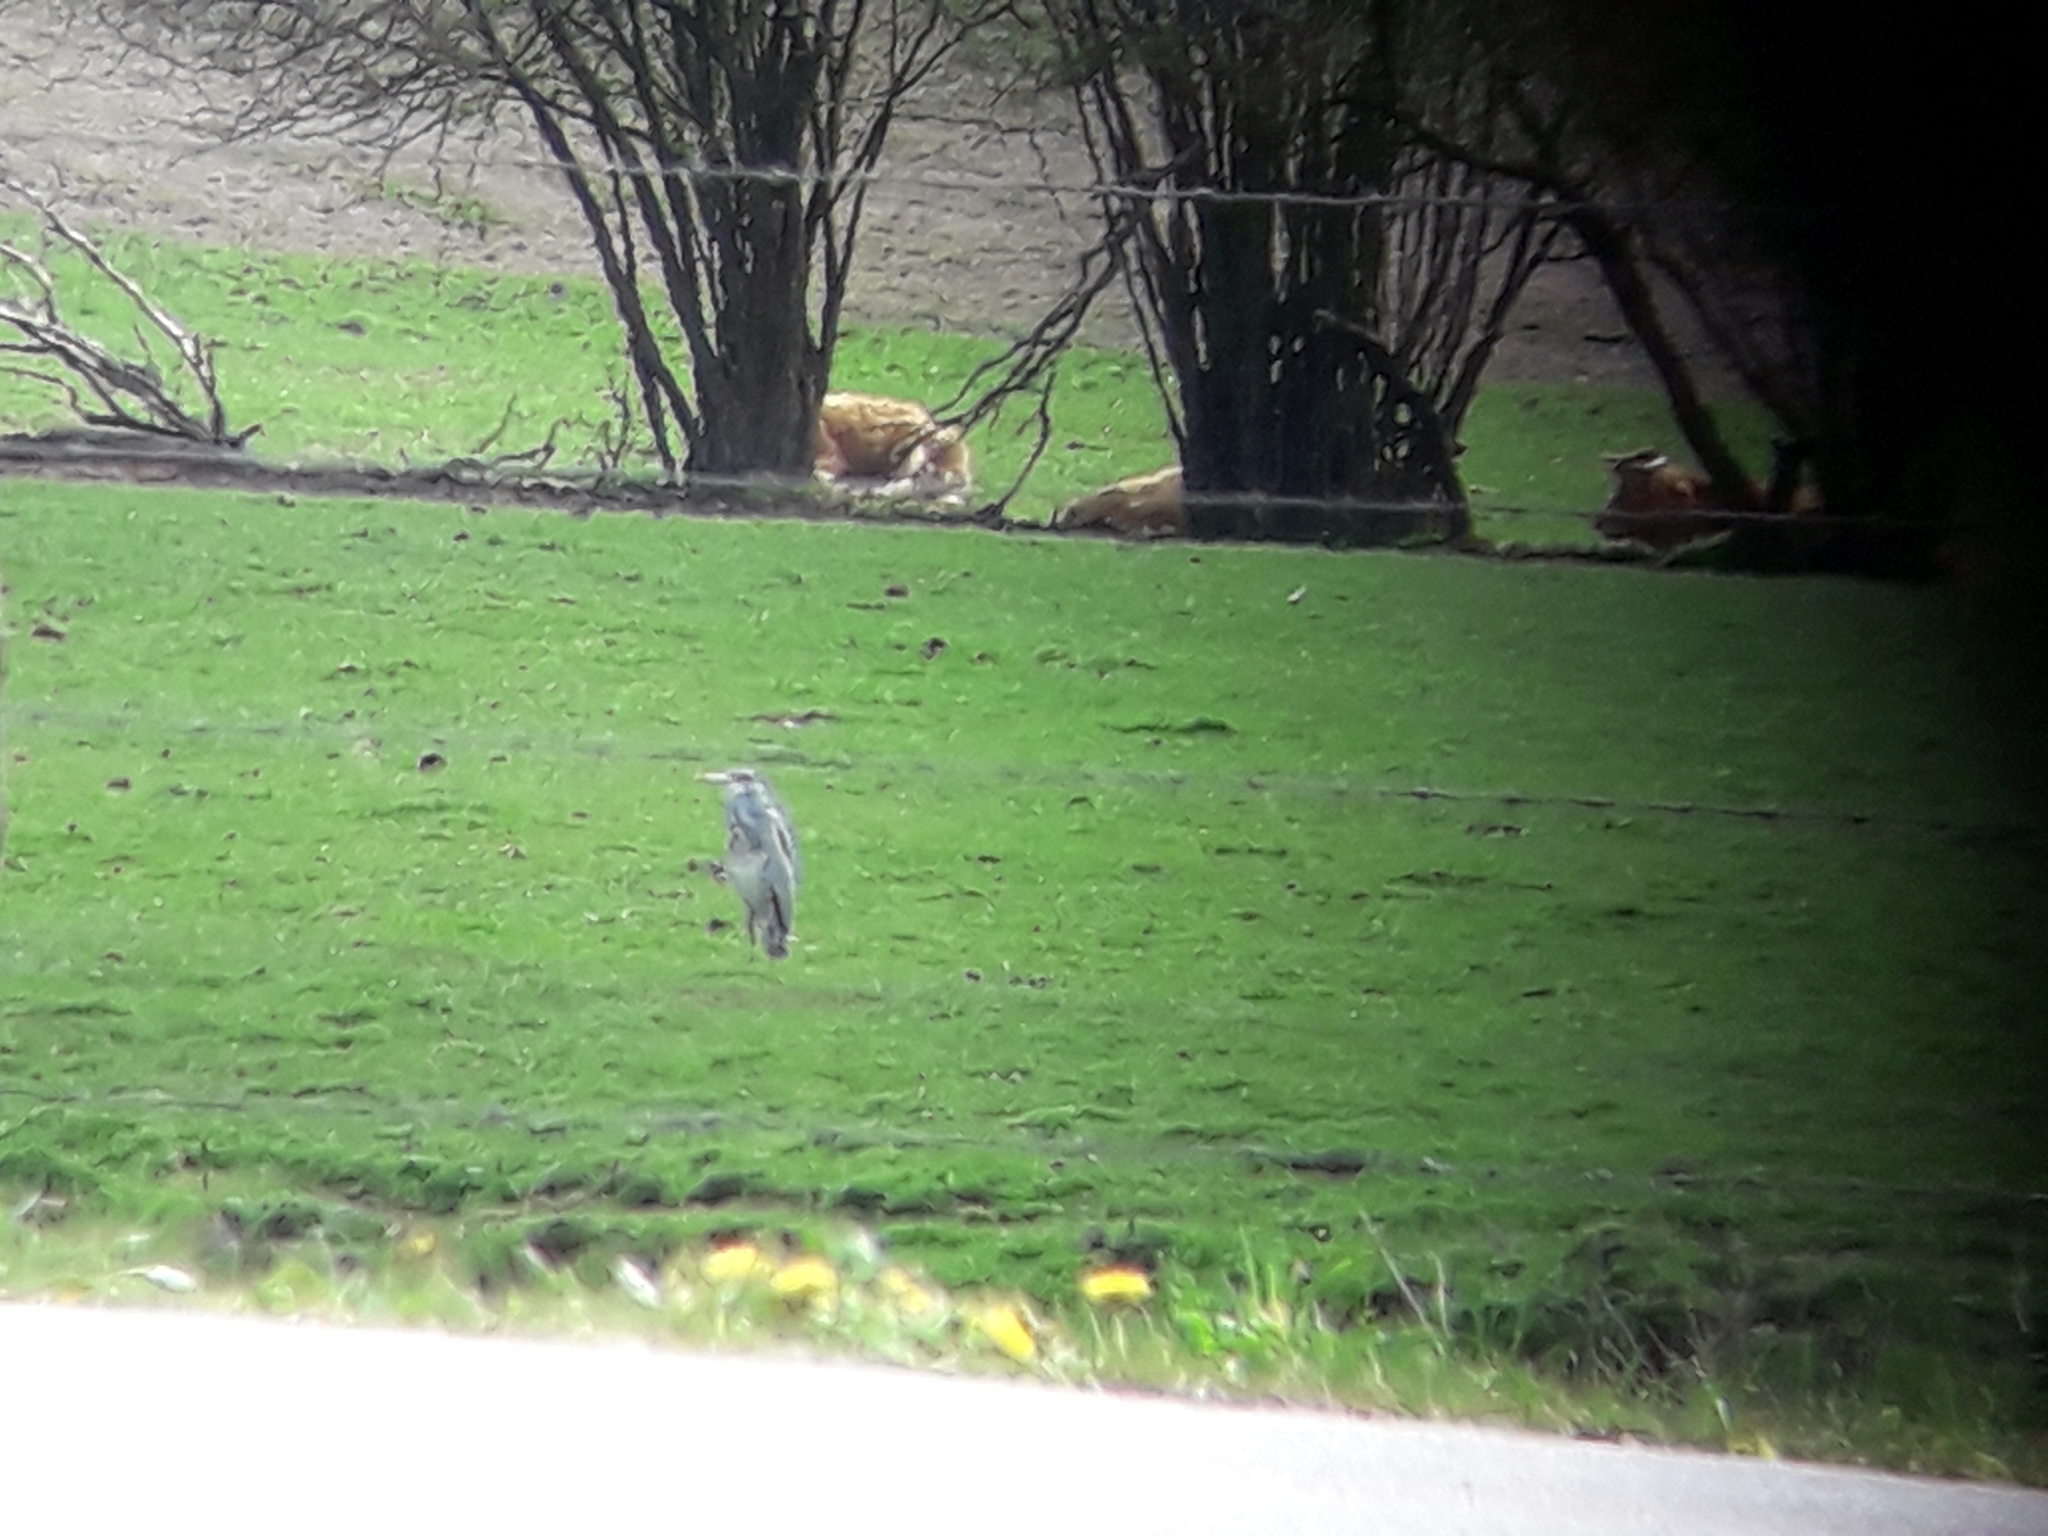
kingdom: Animalia
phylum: Chordata
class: Aves
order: Pelecaniformes
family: Ardeidae
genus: Ardea
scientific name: Ardea cinerea
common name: Grey heron
